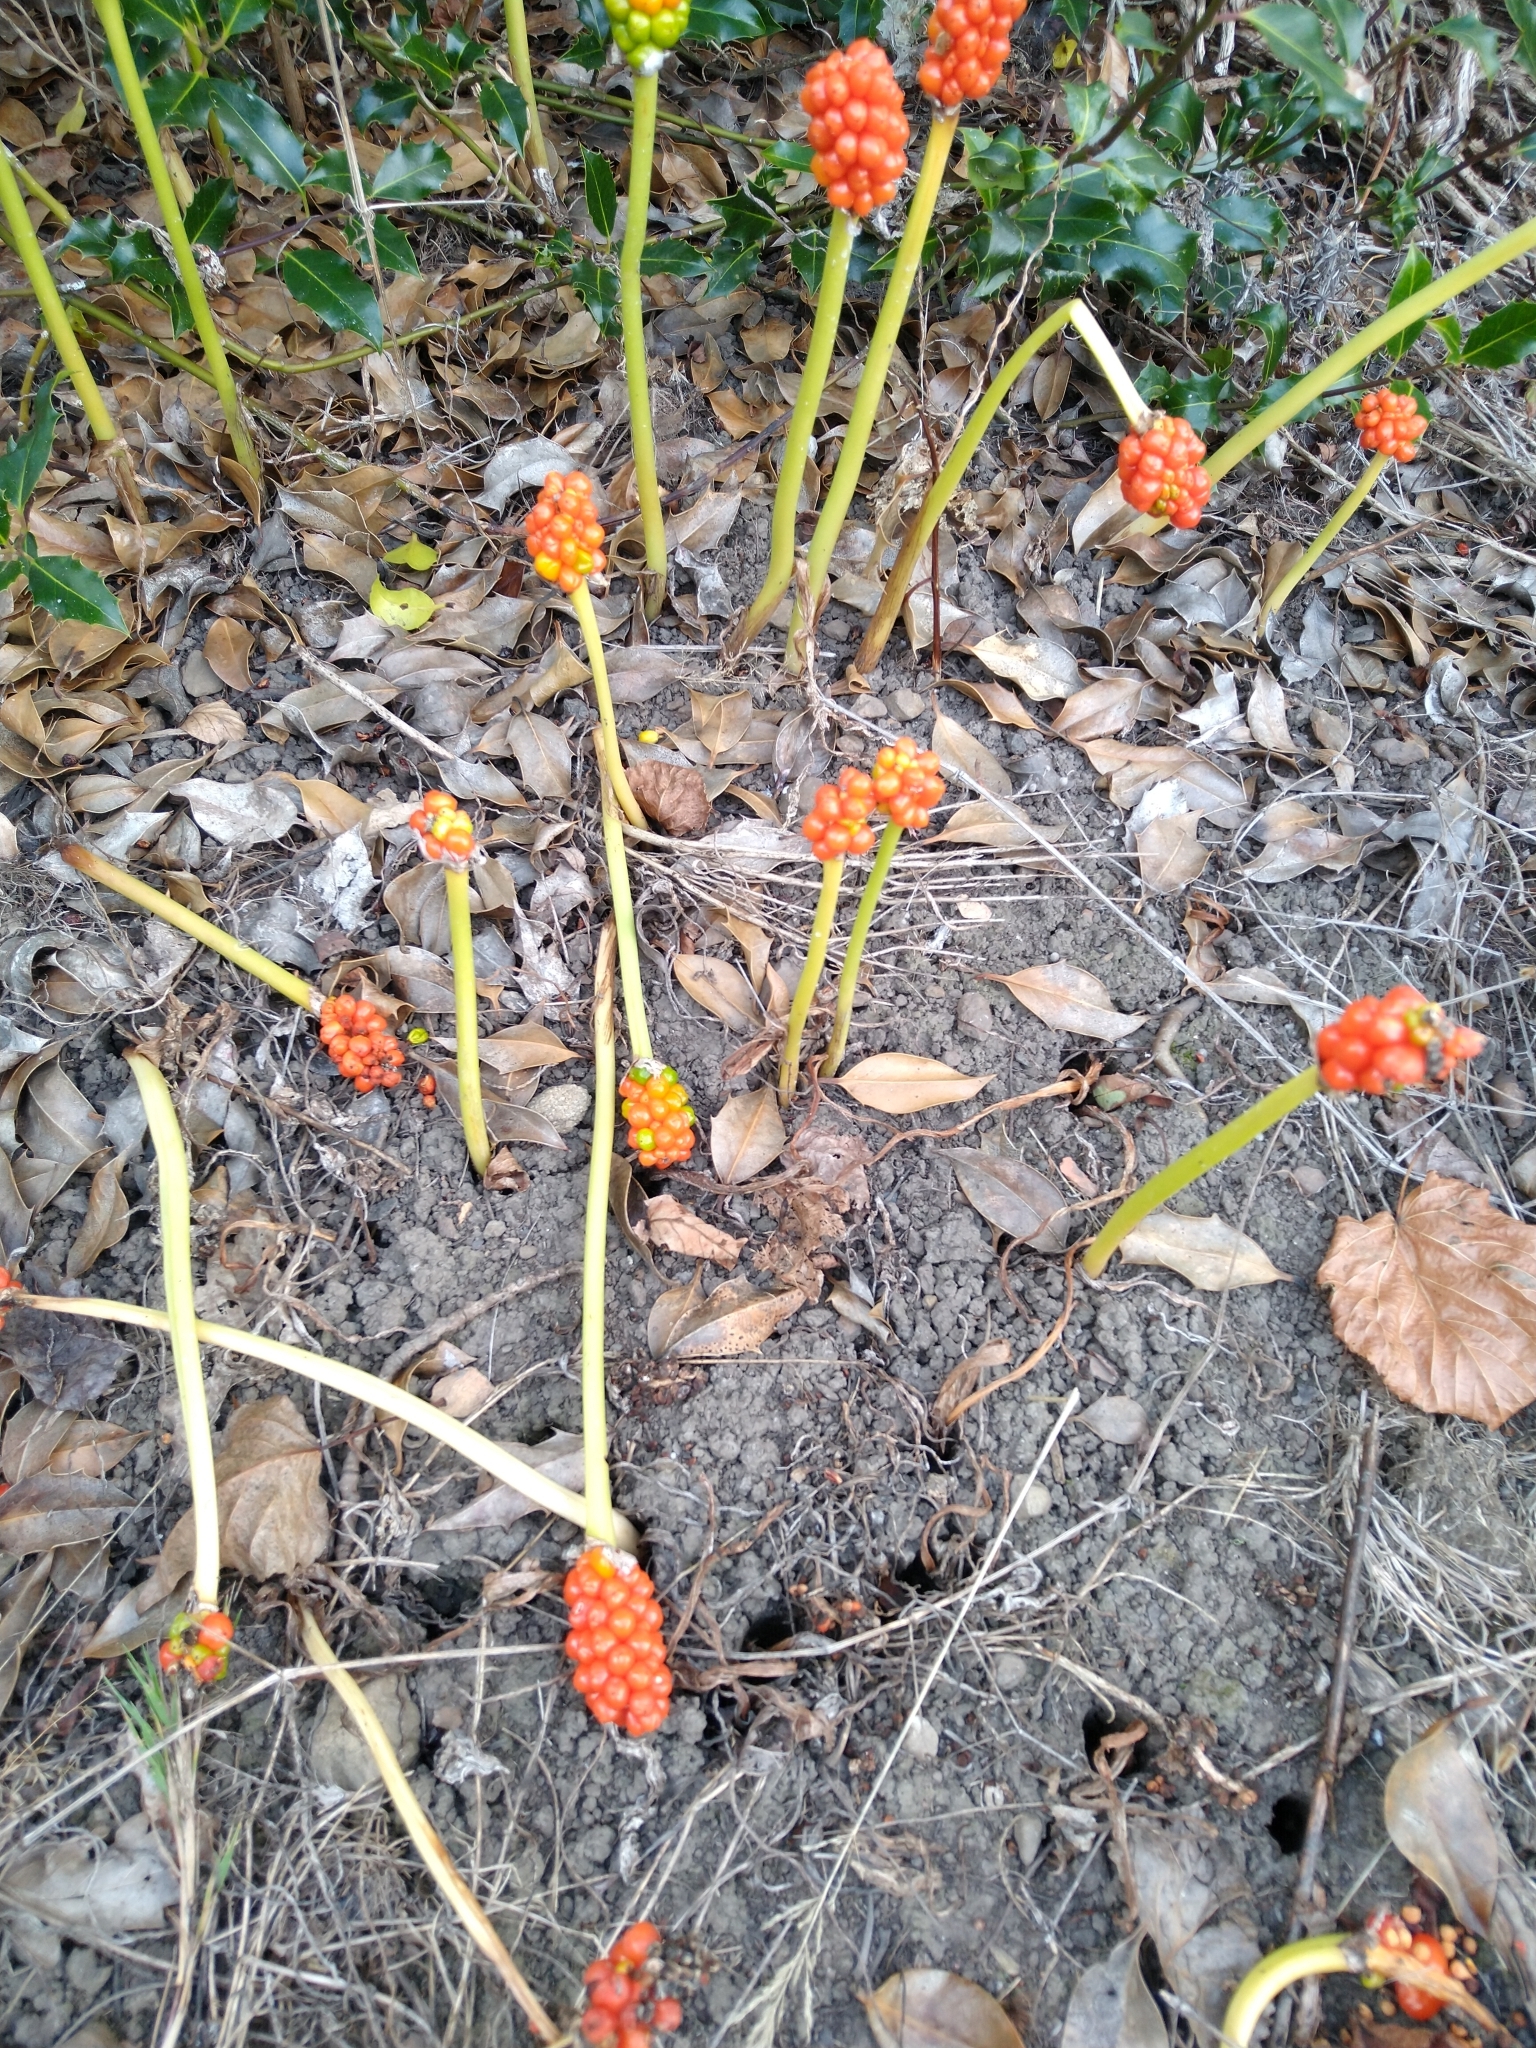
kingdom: Plantae
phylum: Tracheophyta
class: Liliopsida
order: Alismatales
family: Araceae
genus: Arum
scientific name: Arum maculatum
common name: Lords-and-ladies
